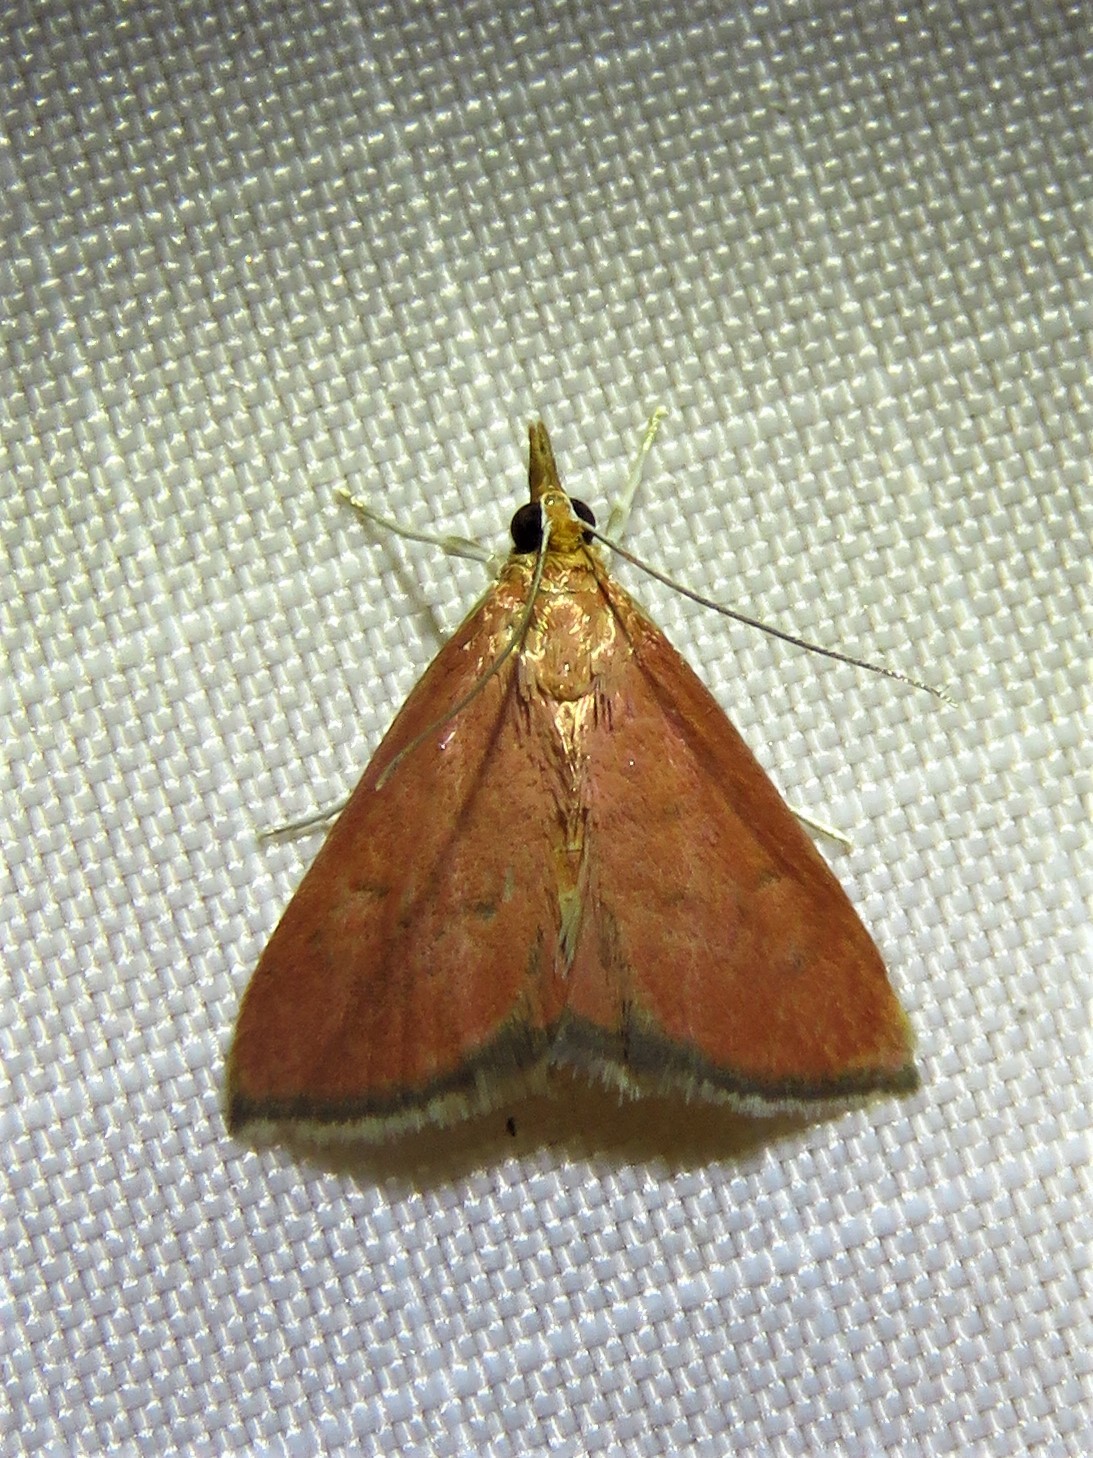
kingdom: Animalia
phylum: Arthropoda
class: Insecta
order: Lepidoptera
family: Crambidae
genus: Oenobotys
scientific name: Oenobotys texanalis
